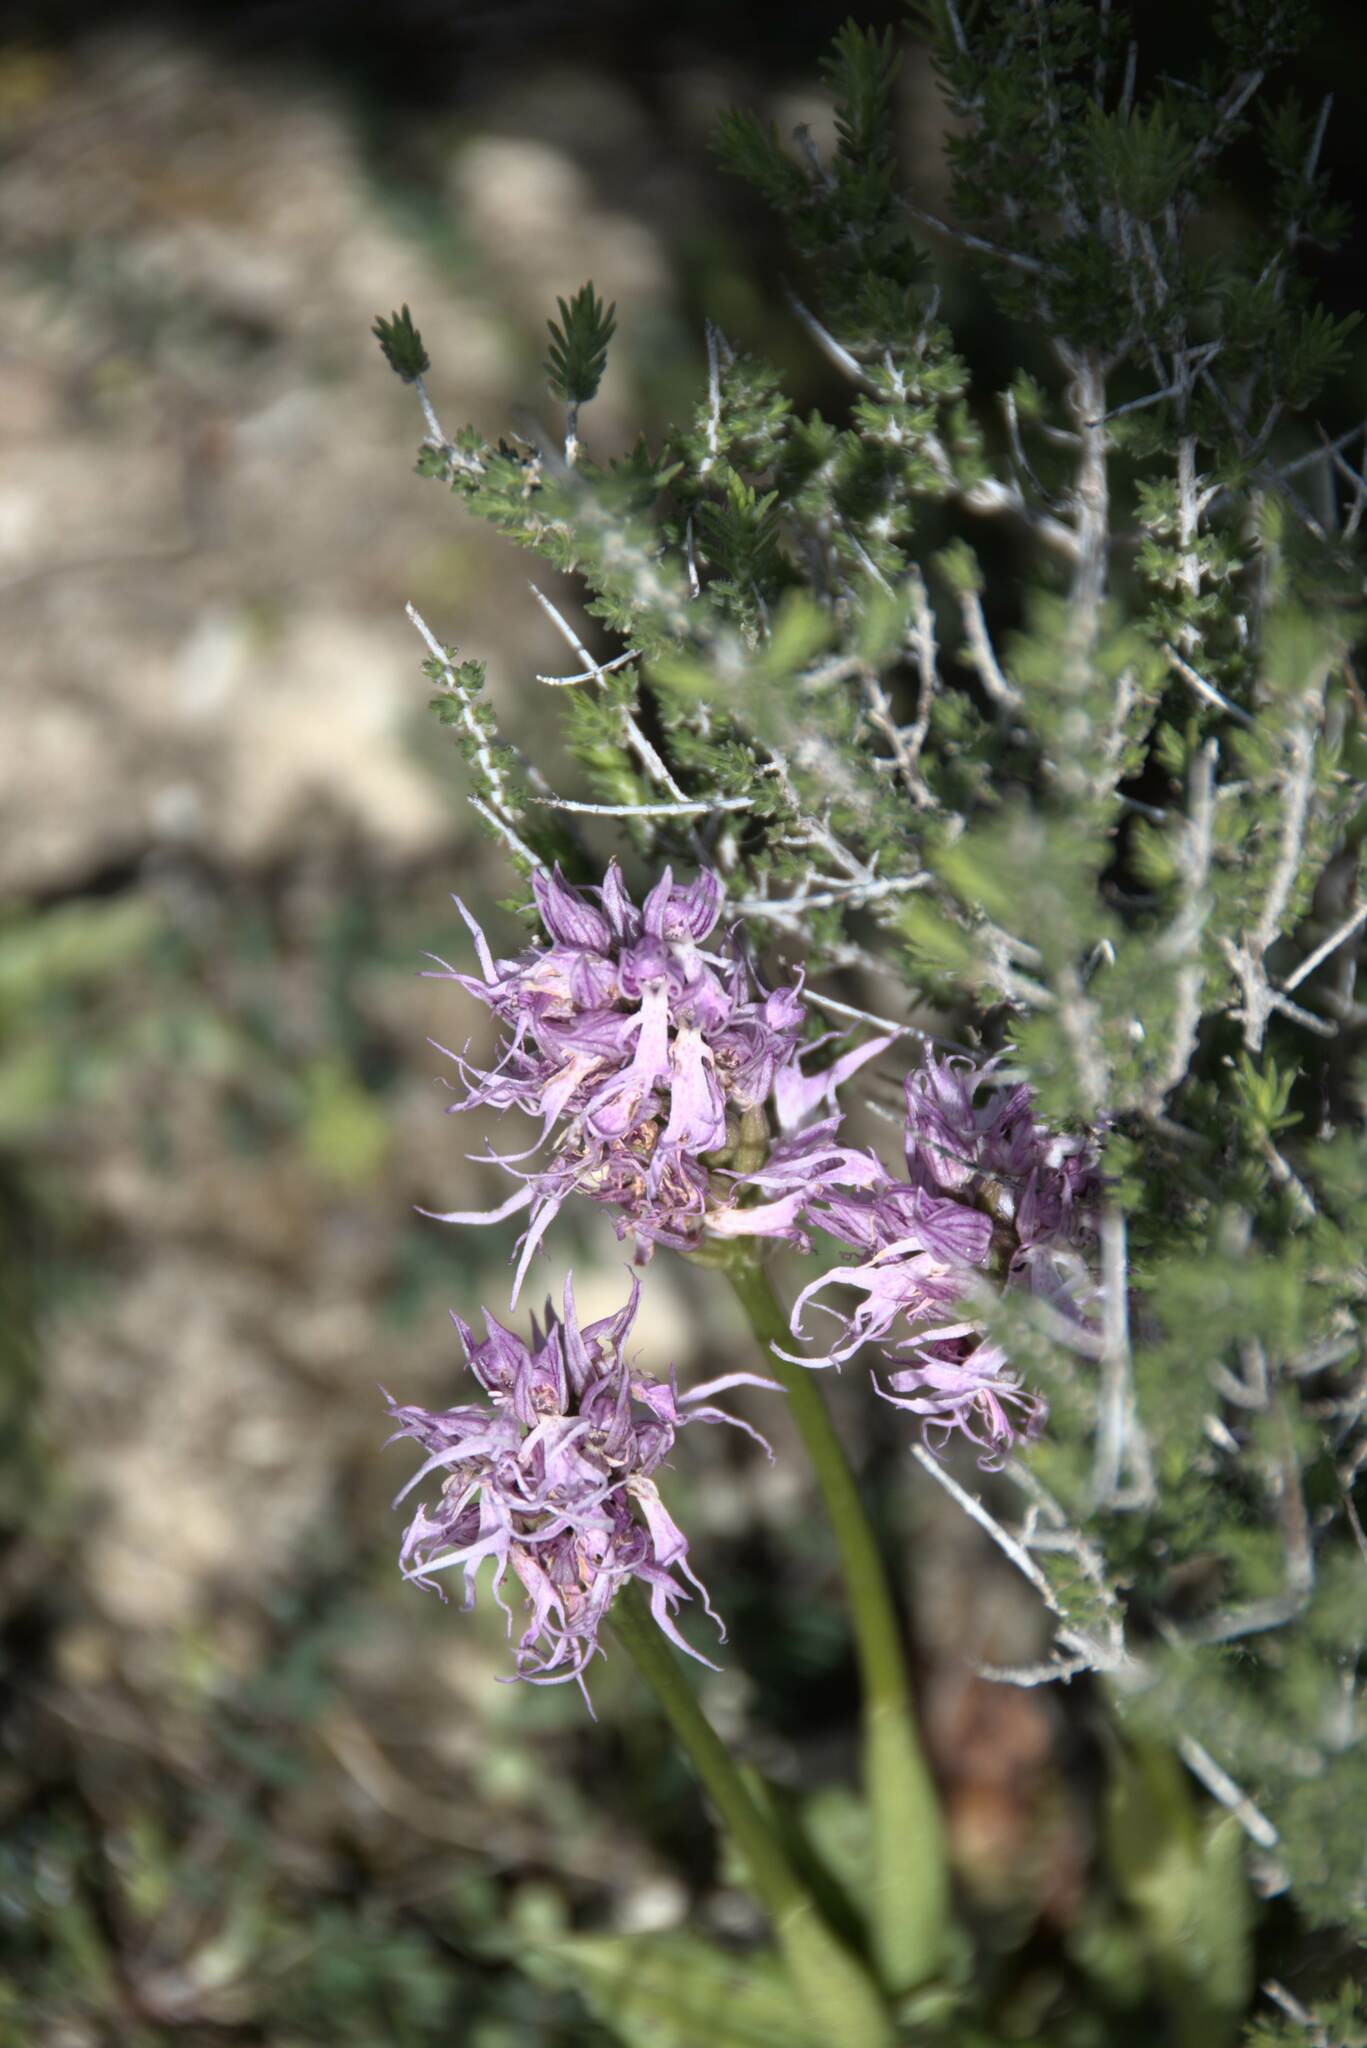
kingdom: Plantae
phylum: Tracheophyta
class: Liliopsida
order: Asparagales
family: Orchidaceae
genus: Orchis
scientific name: Orchis italica
